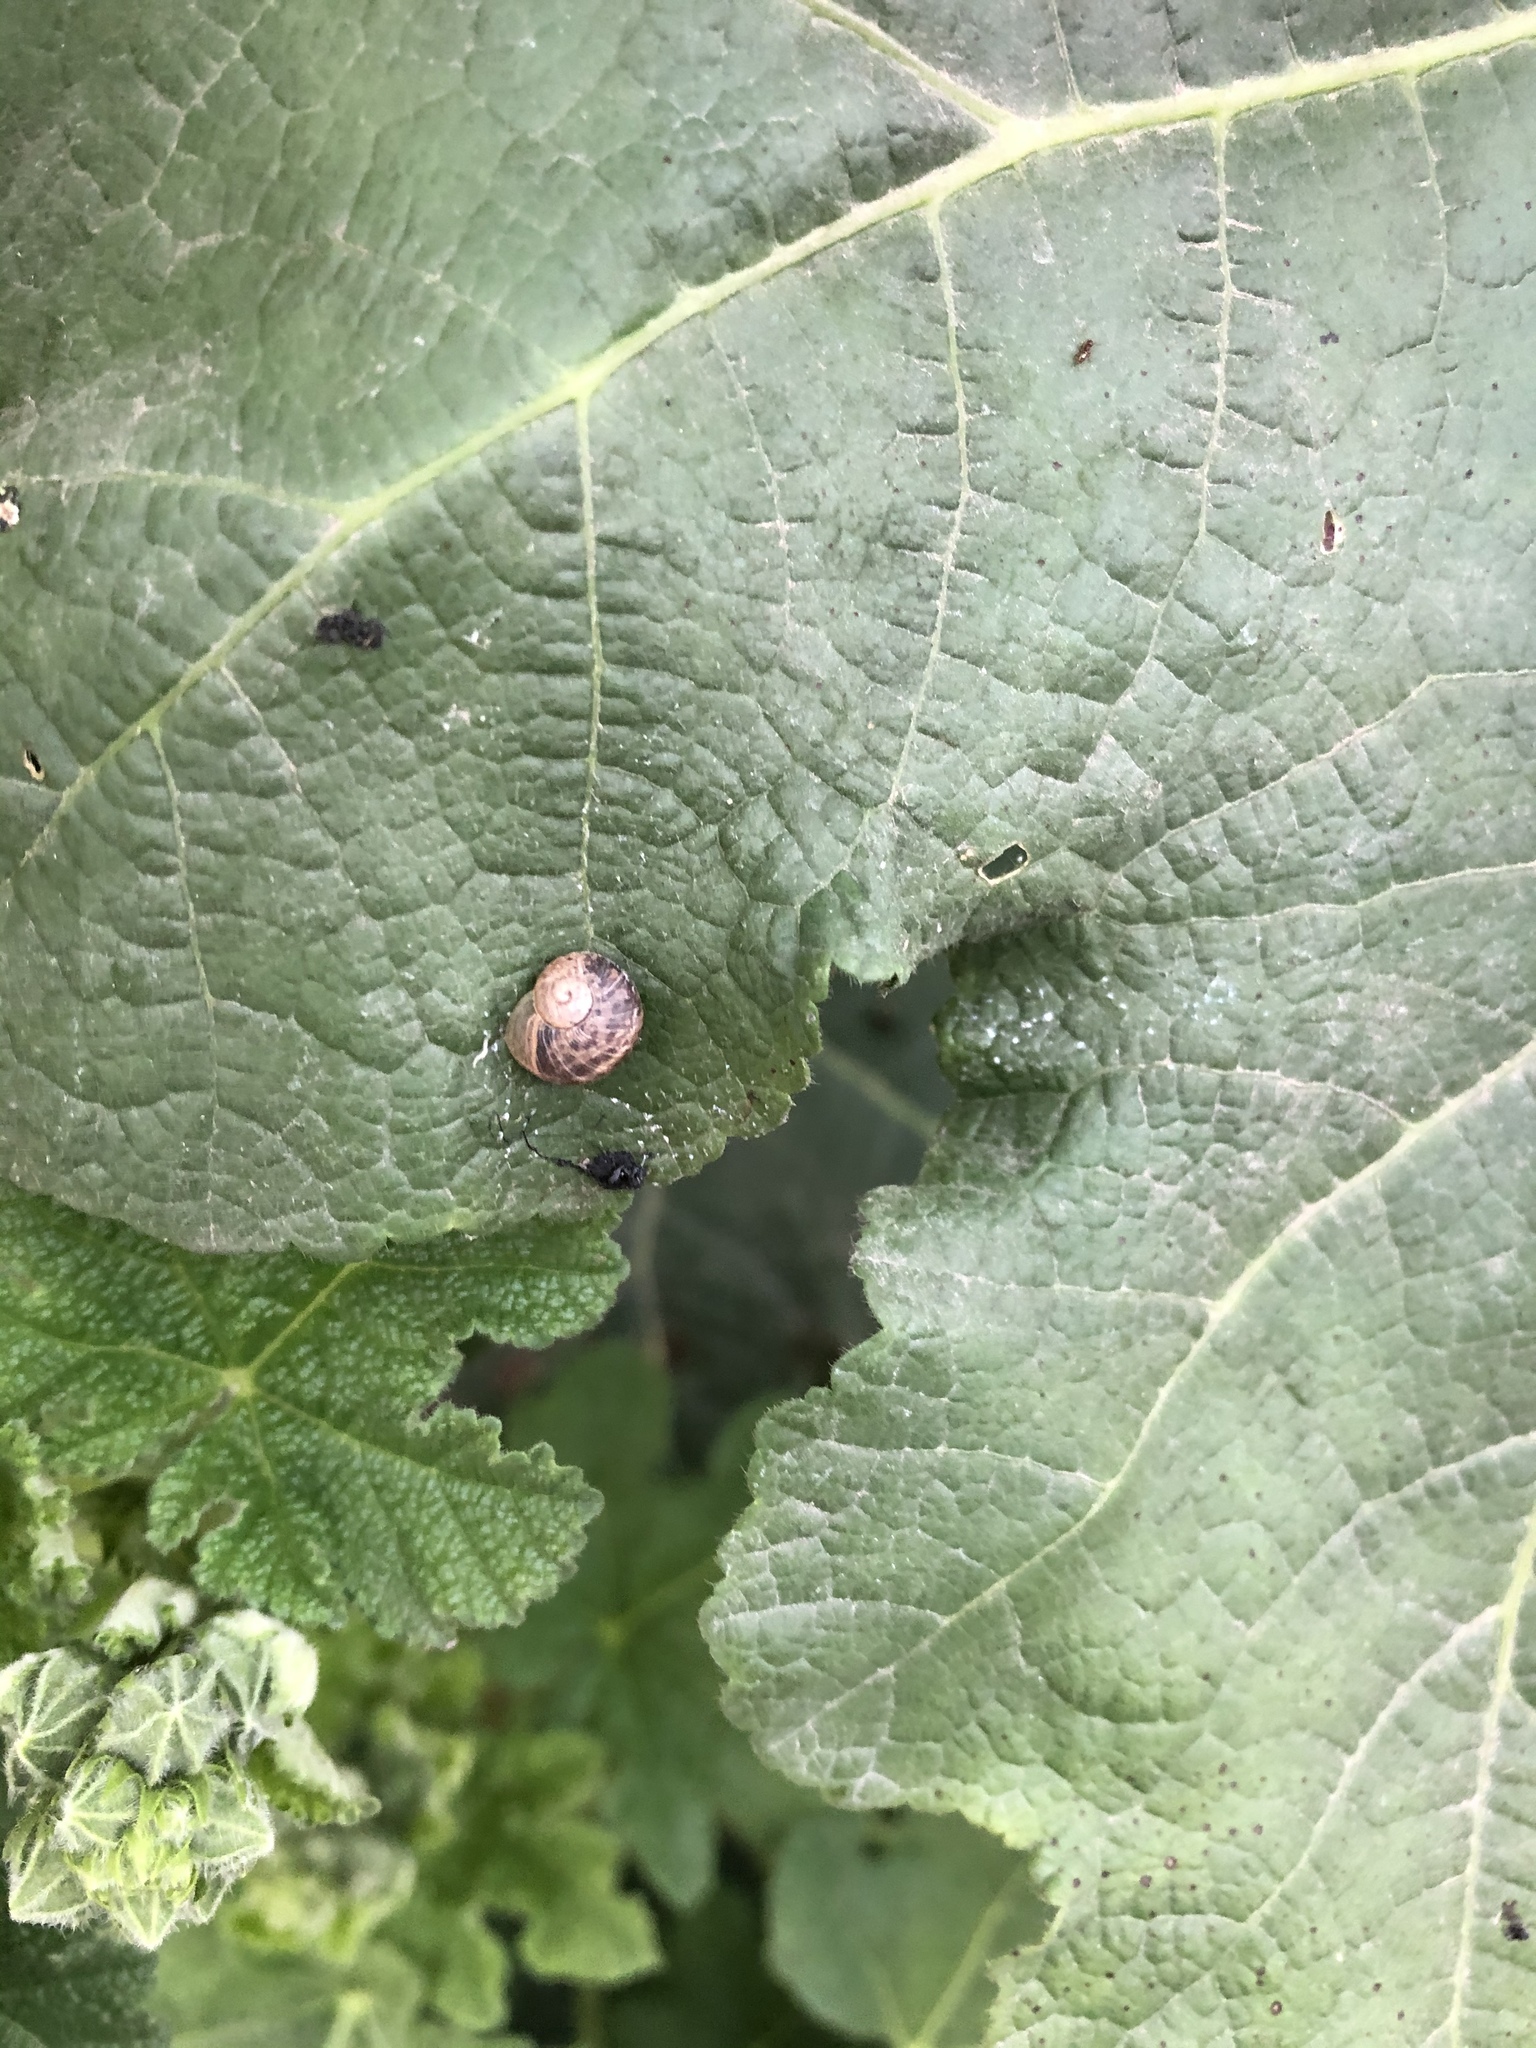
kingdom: Animalia
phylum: Mollusca
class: Gastropoda
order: Stylommatophora
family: Helicidae
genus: Cornu
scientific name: Cornu aspersum
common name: Brown garden snail
